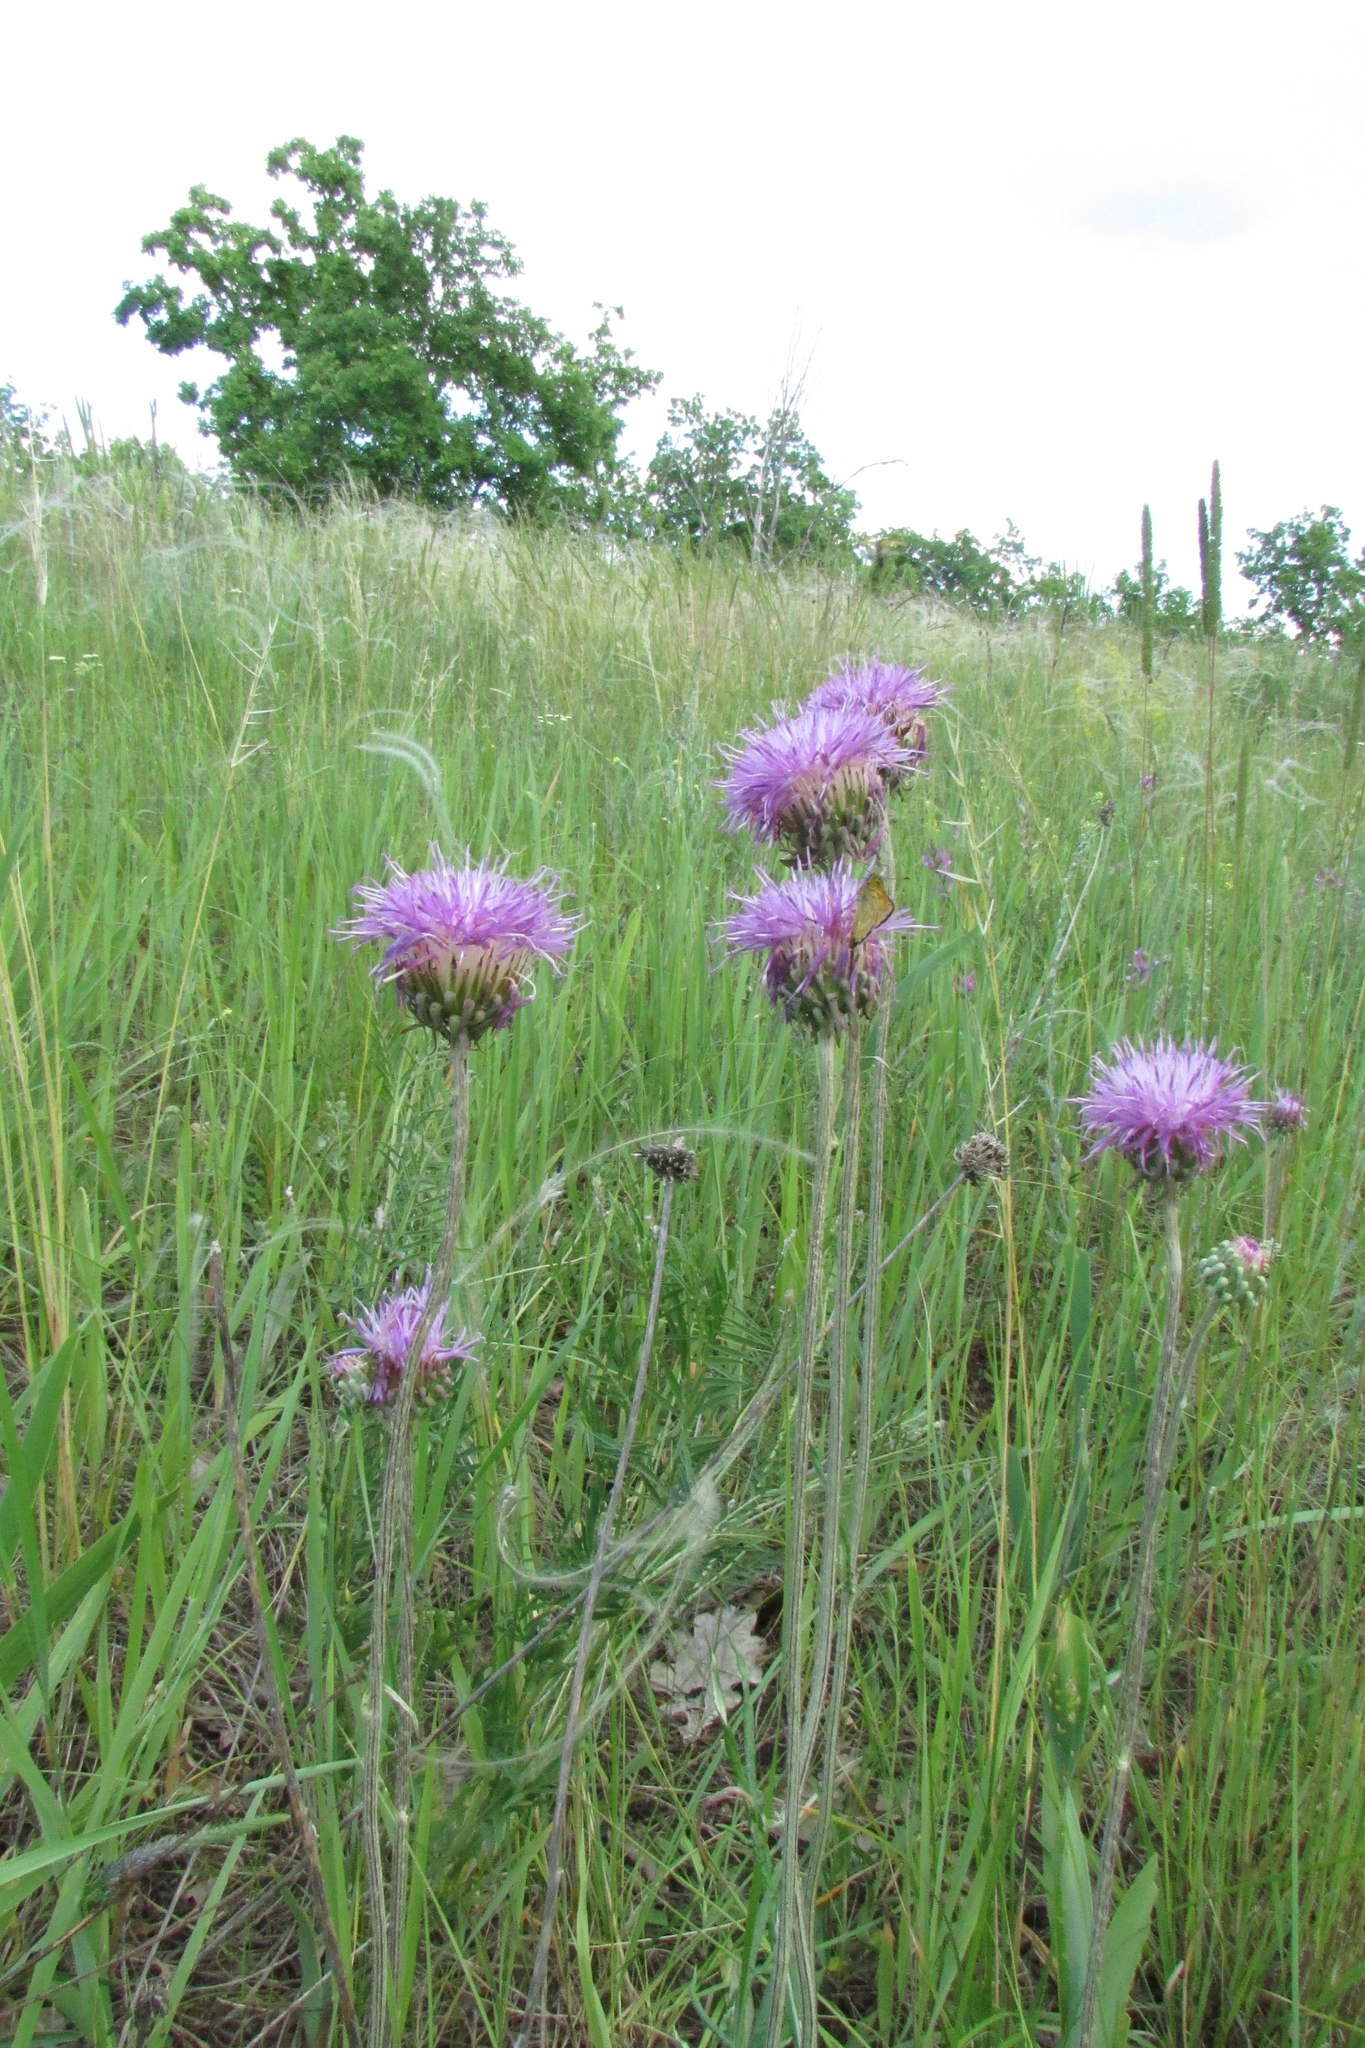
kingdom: Plantae
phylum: Tracheophyta
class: Magnoliopsida
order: Asterales
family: Asteraceae
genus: Jurinea
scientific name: Jurinea cyanoides
